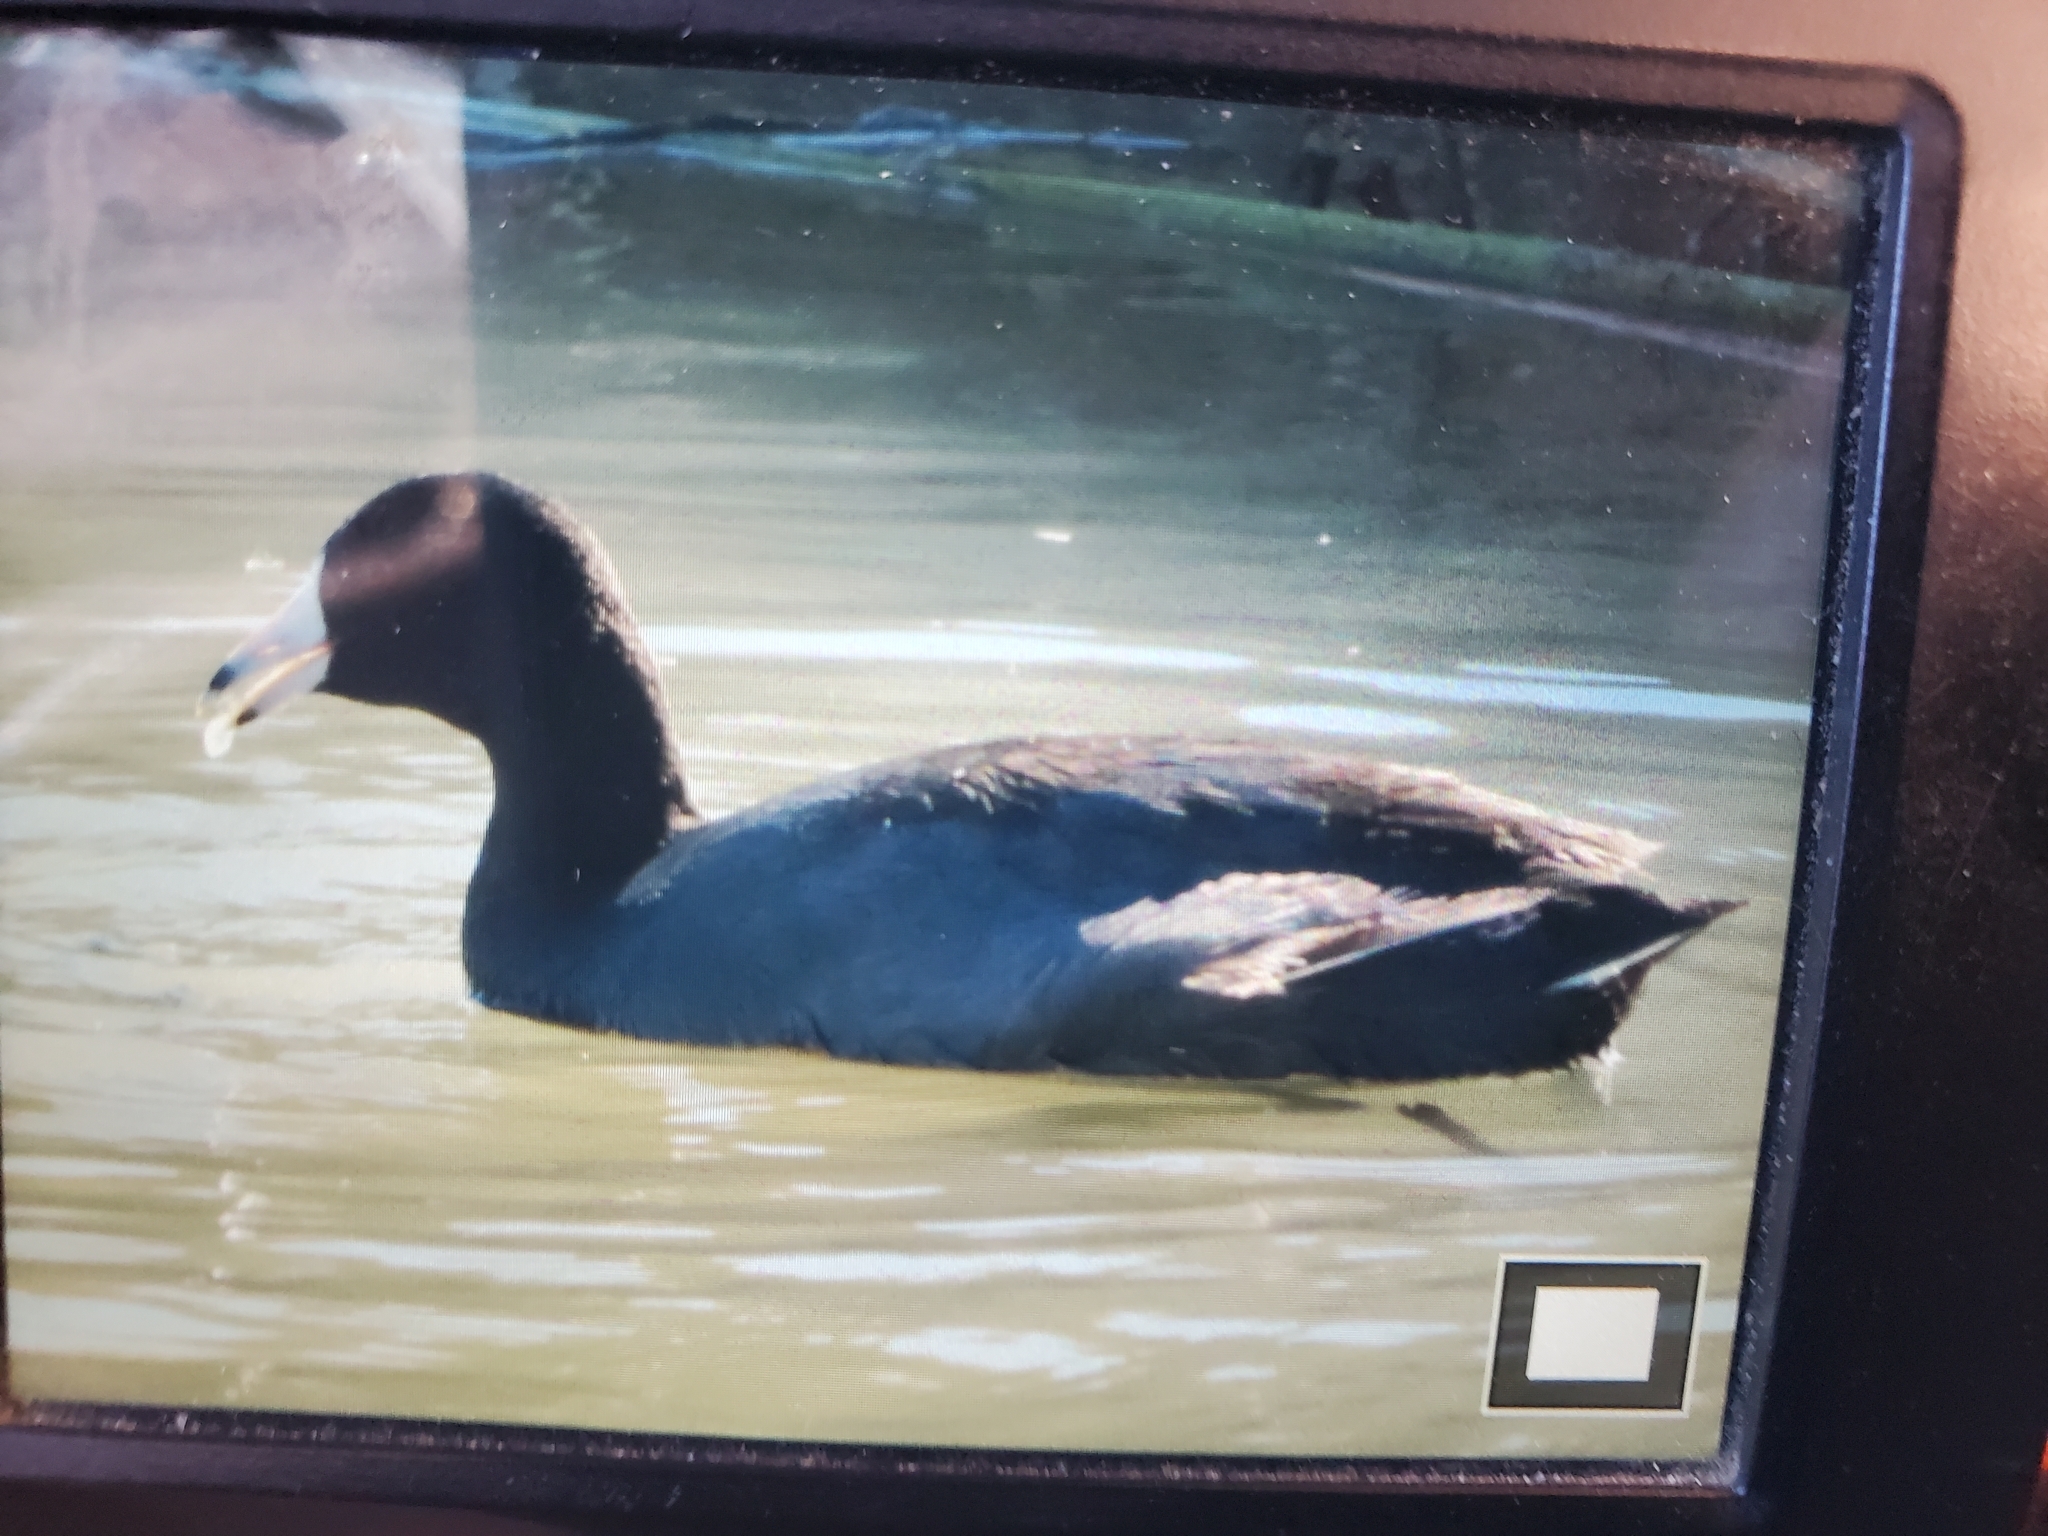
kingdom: Animalia
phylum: Chordata
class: Aves
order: Gruiformes
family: Rallidae
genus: Fulica
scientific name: Fulica americana
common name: American coot
